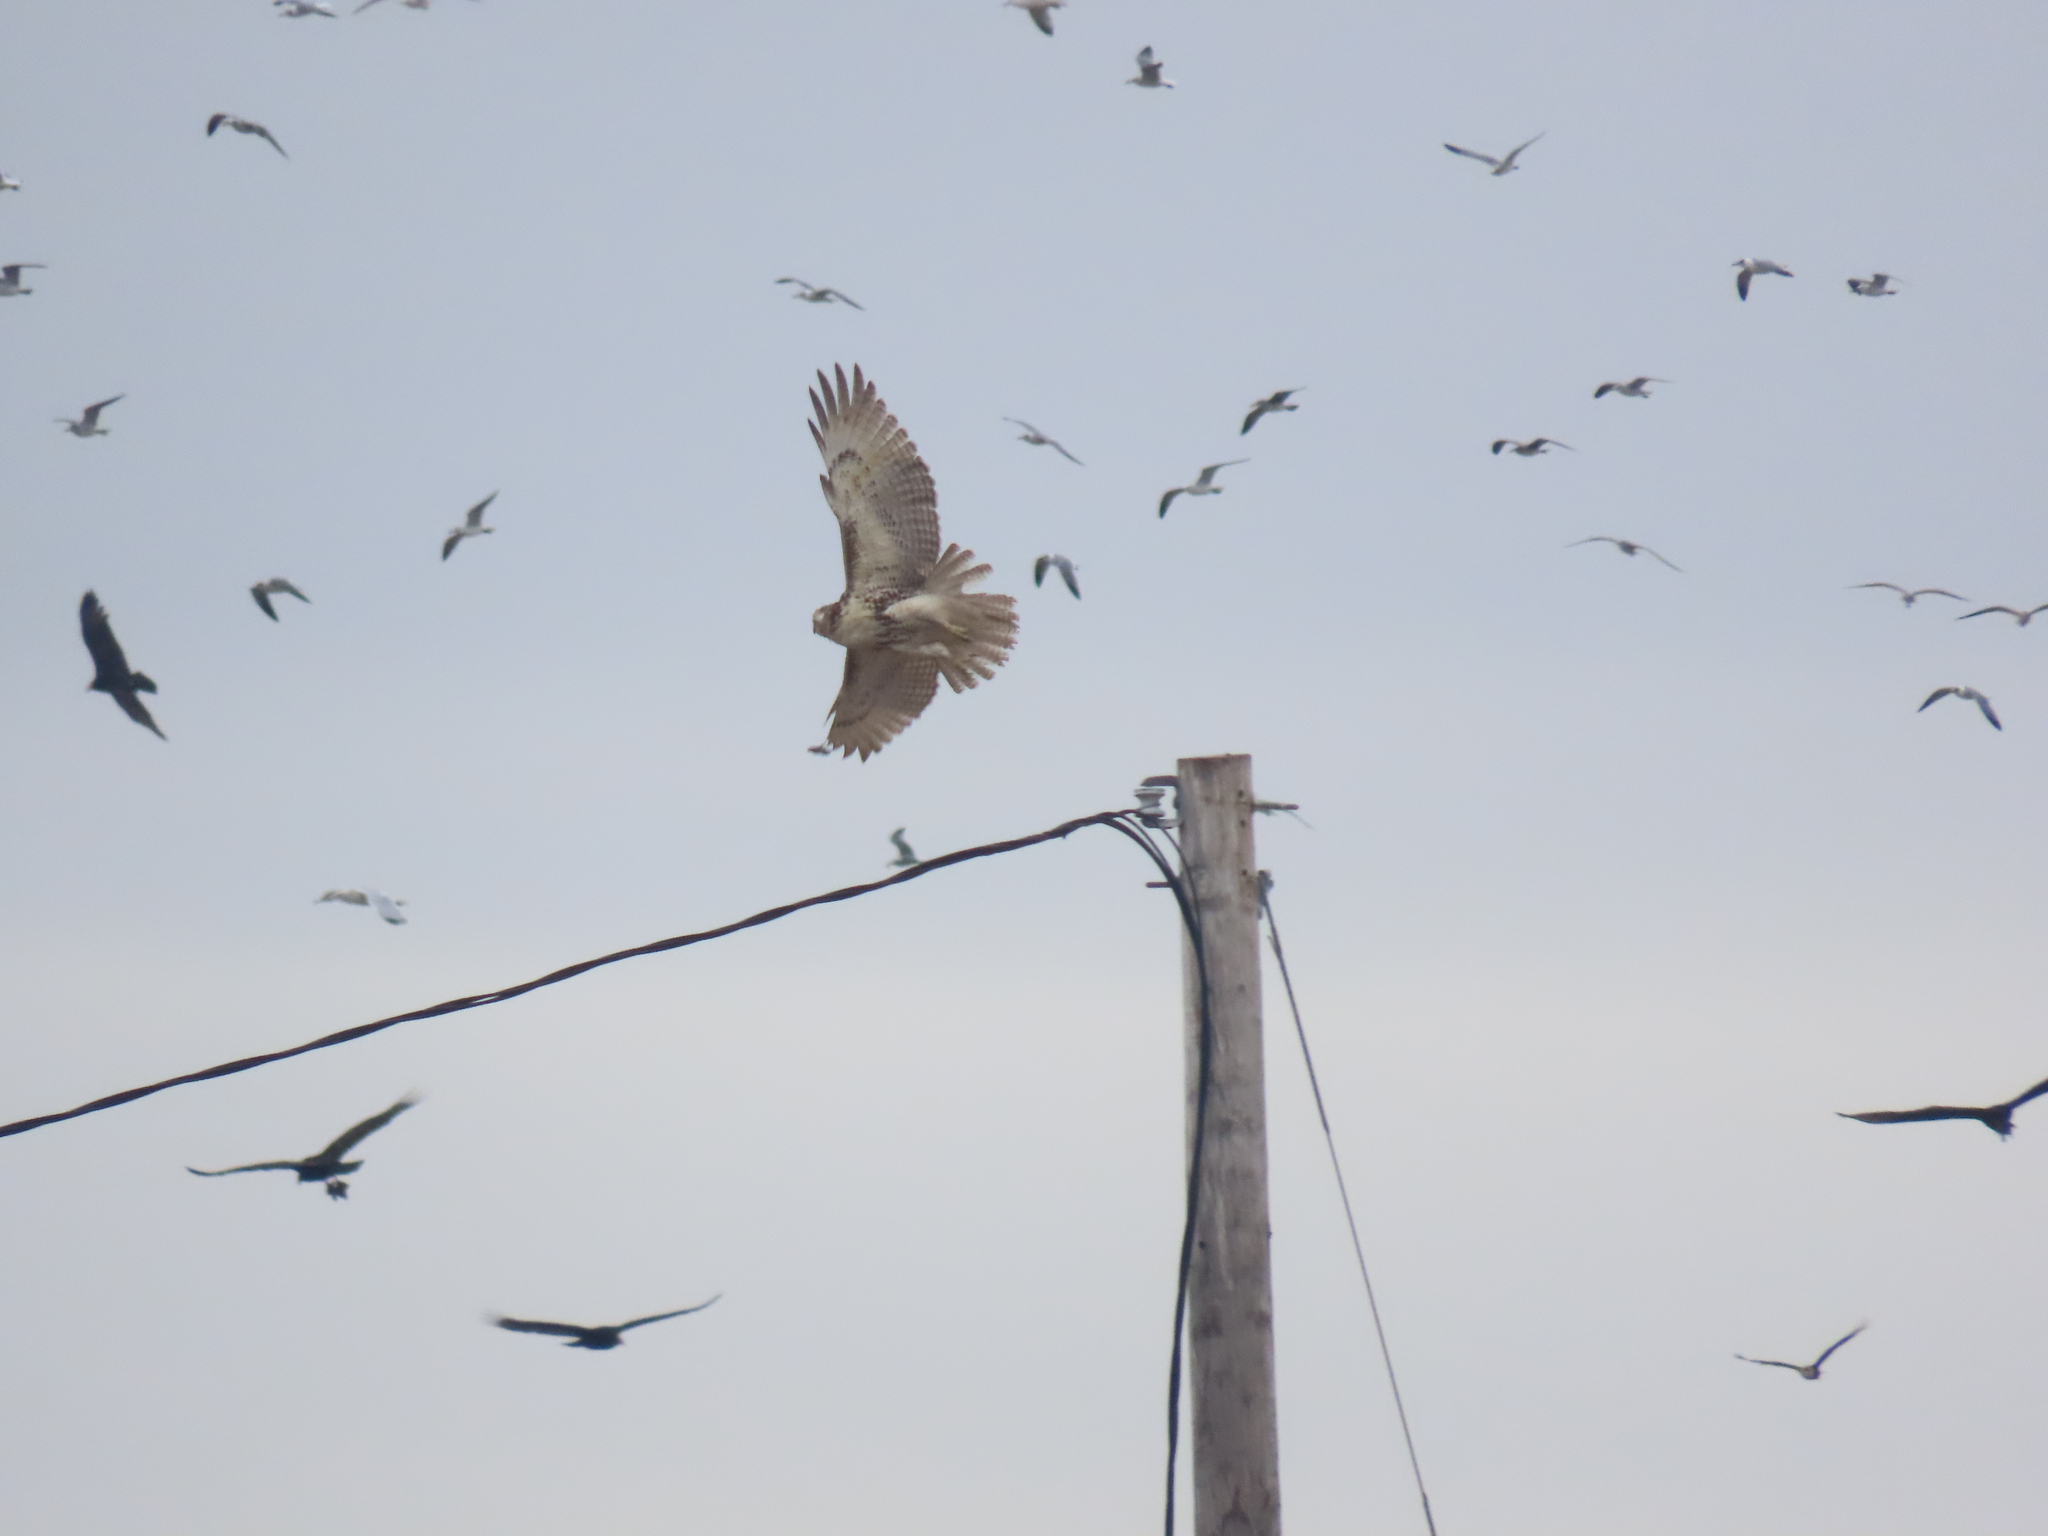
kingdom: Animalia
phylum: Chordata
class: Aves
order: Accipitriformes
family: Accipitridae
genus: Buteo
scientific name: Buteo jamaicensis
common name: Red-tailed hawk
